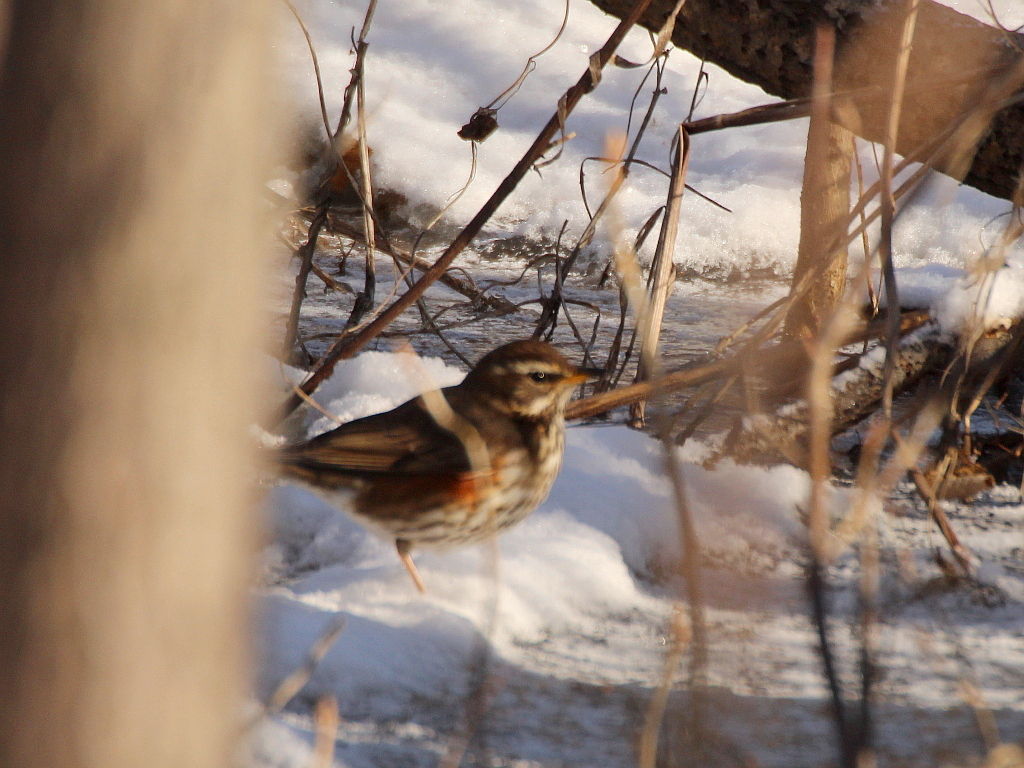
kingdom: Animalia
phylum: Chordata
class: Aves
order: Passeriformes
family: Turdidae
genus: Turdus
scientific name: Turdus iliacus
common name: Redwing
